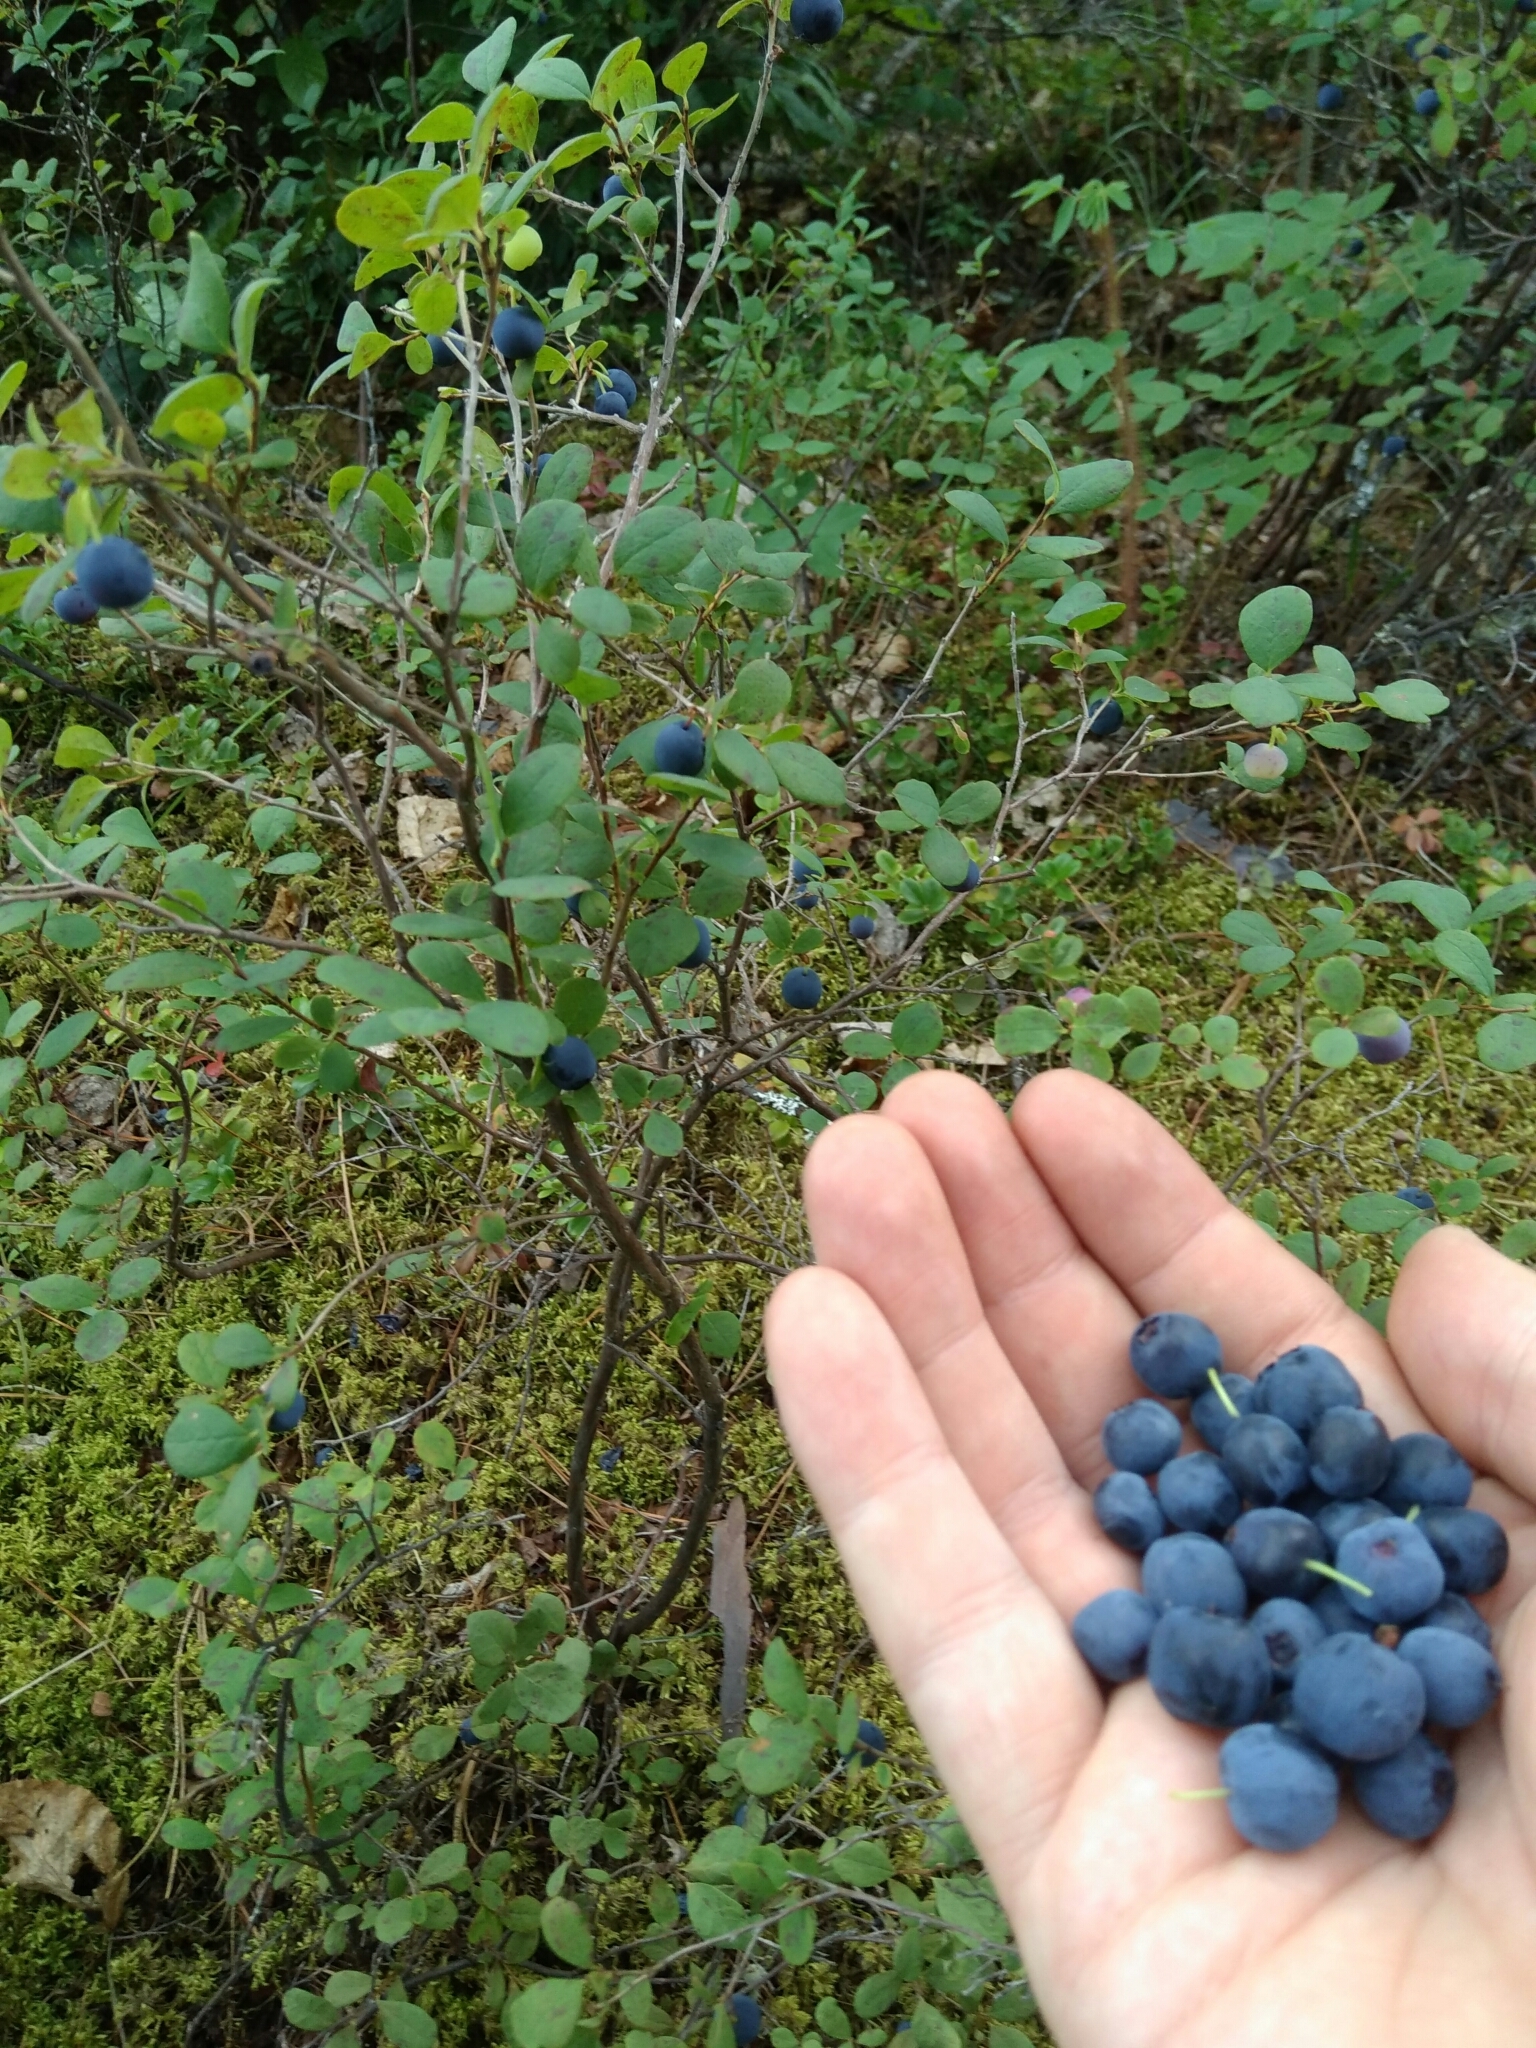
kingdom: Plantae
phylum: Tracheophyta
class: Magnoliopsida
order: Ericales
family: Ericaceae
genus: Vaccinium
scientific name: Vaccinium uliginosum
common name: Bog bilberry
